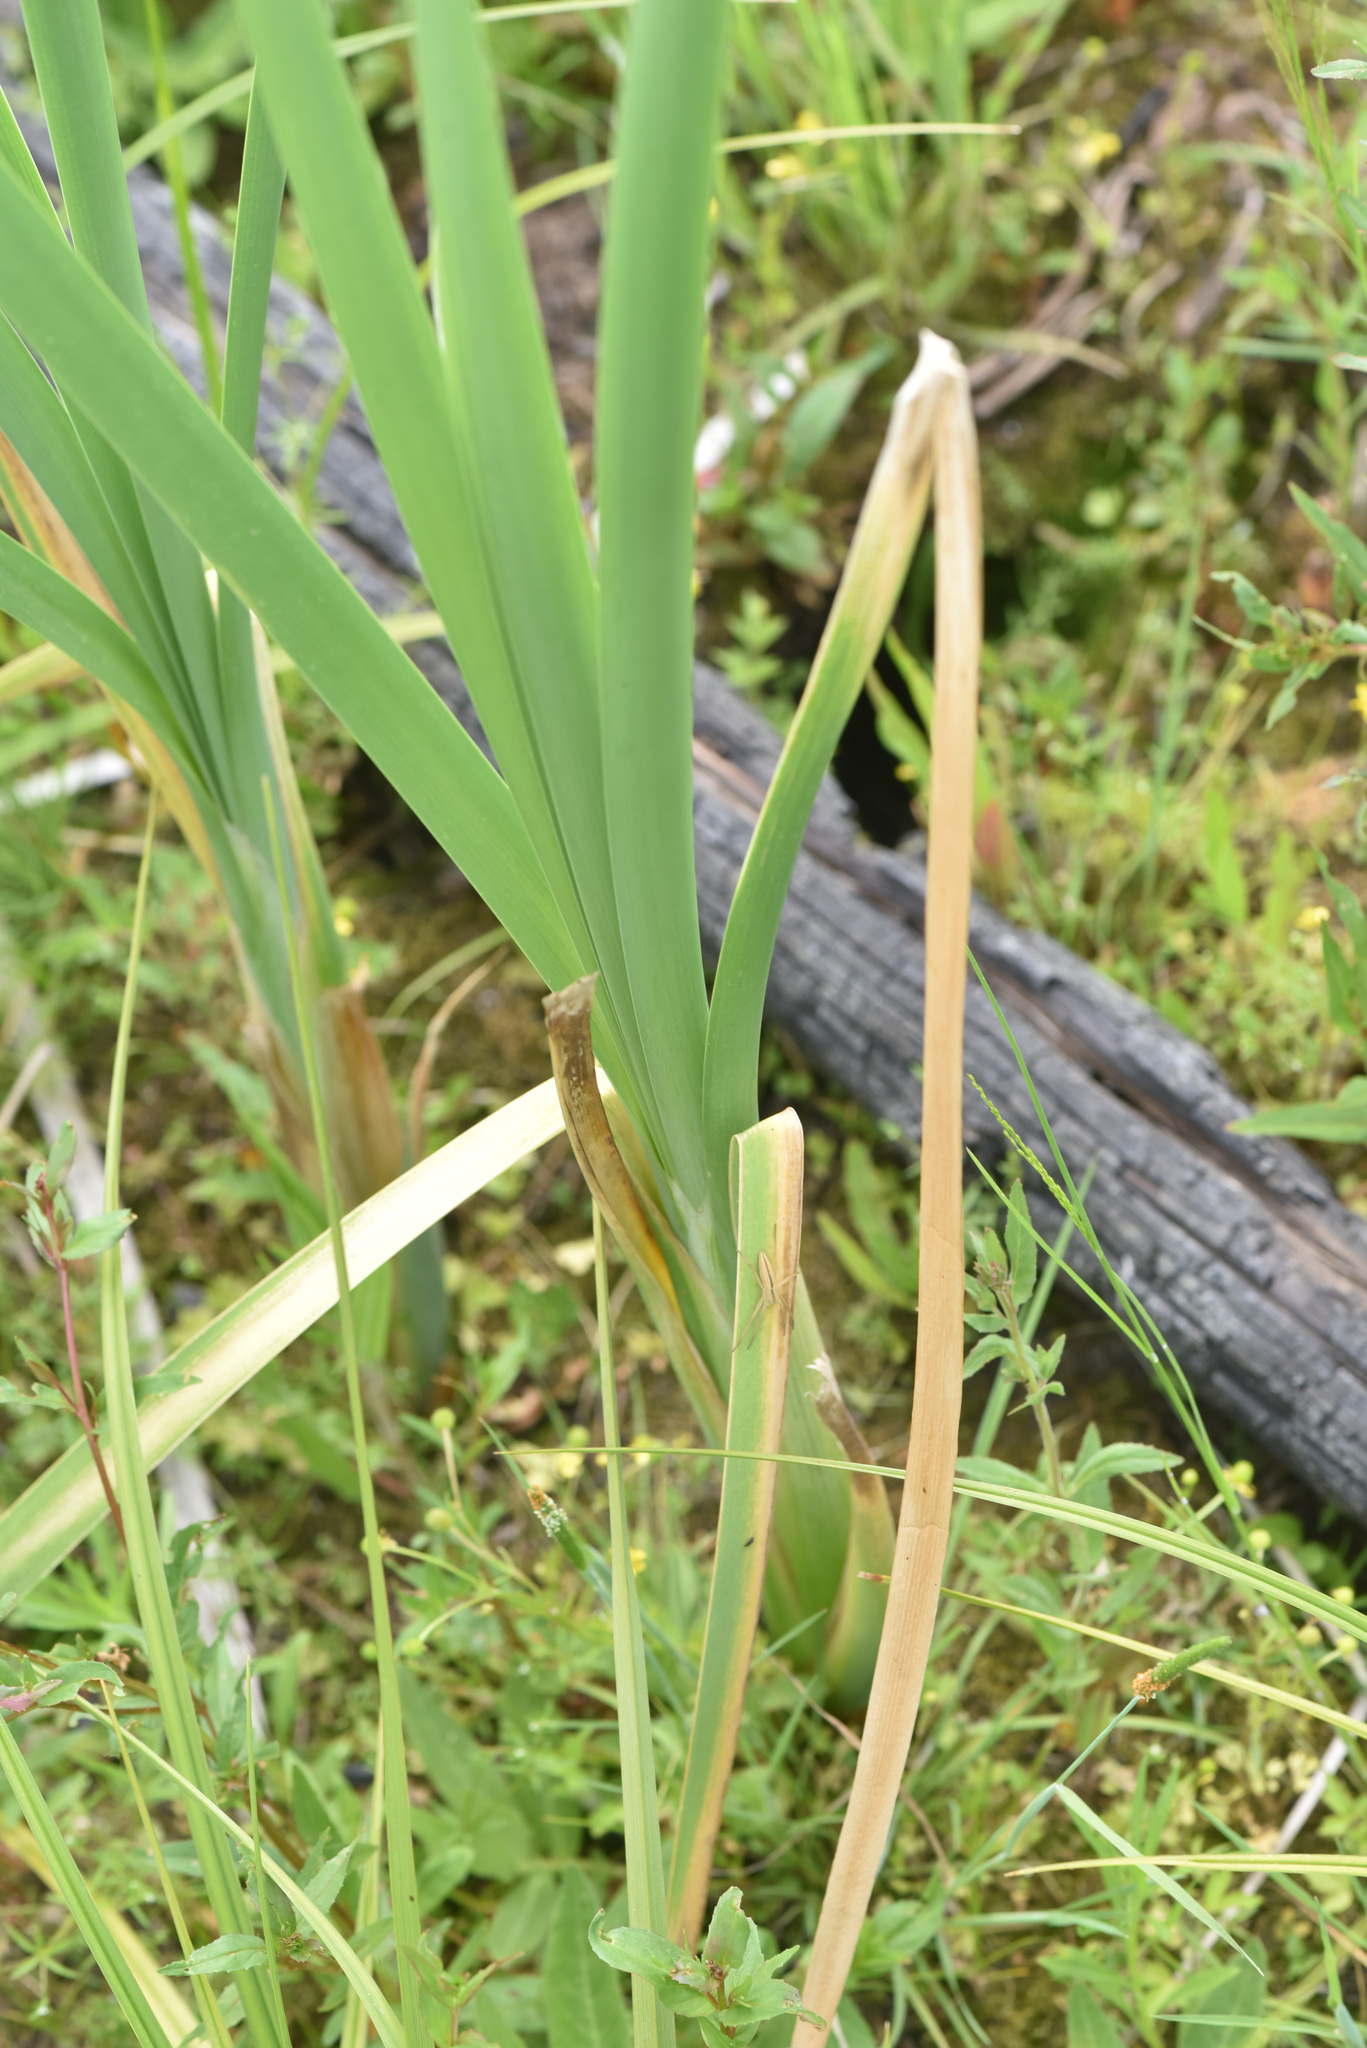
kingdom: Plantae
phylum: Tracheophyta
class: Liliopsida
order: Poales
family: Typhaceae
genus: Typha
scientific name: Typha latifolia
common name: Broadleaf cattail
